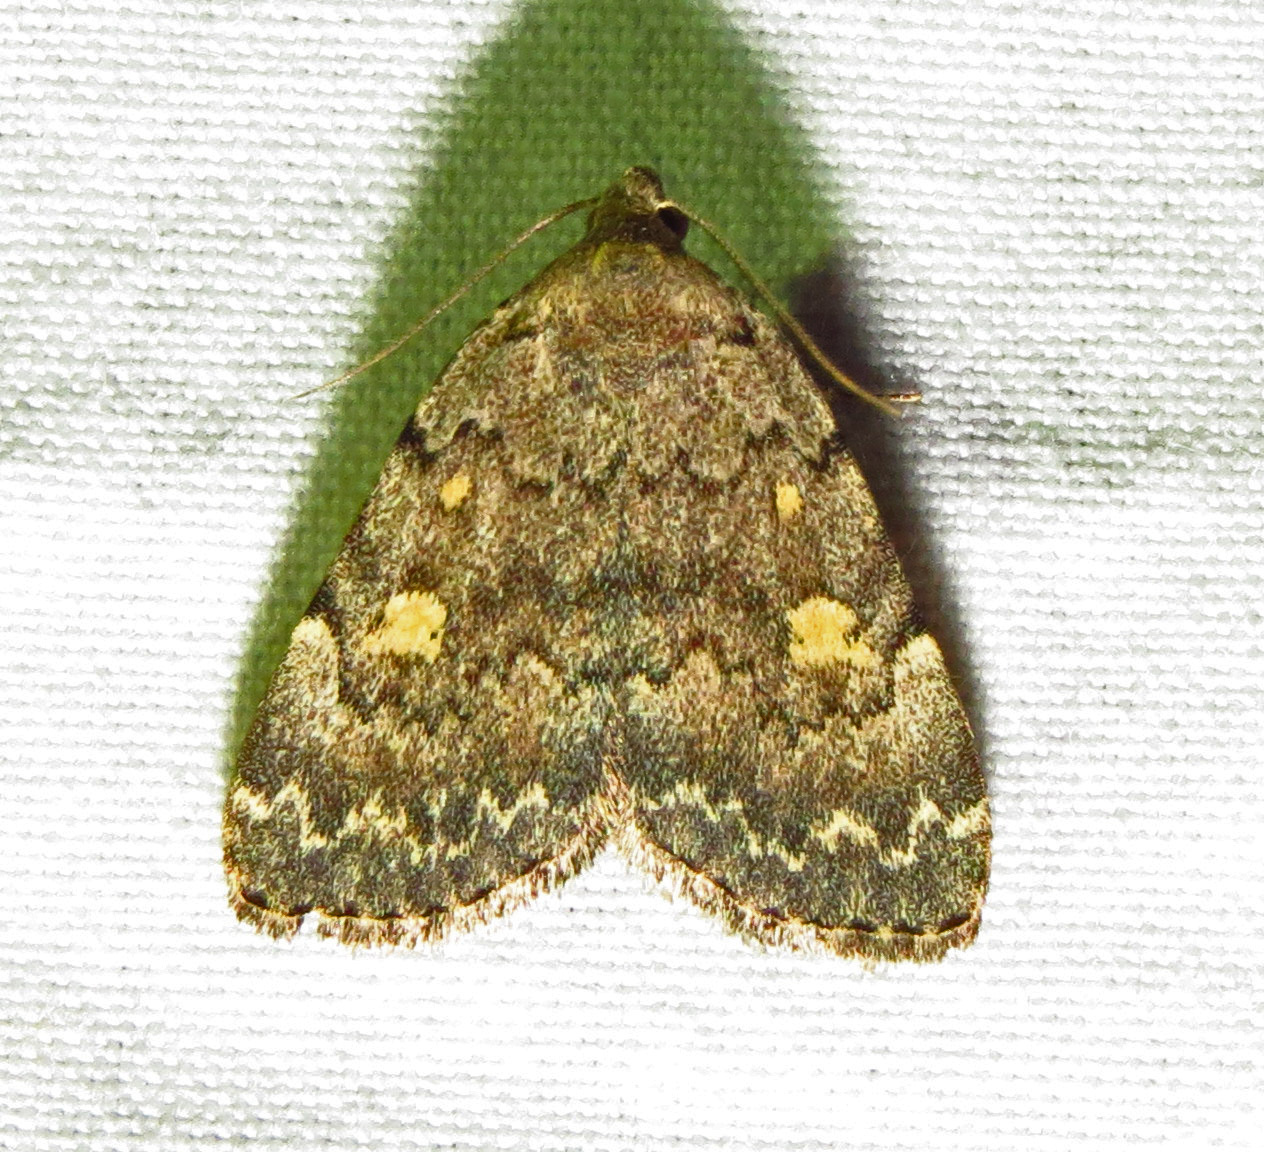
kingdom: Animalia
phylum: Arthropoda
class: Insecta
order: Lepidoptera
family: Erebidae
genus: Idia
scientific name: Idia aemula
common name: Common idia moth
